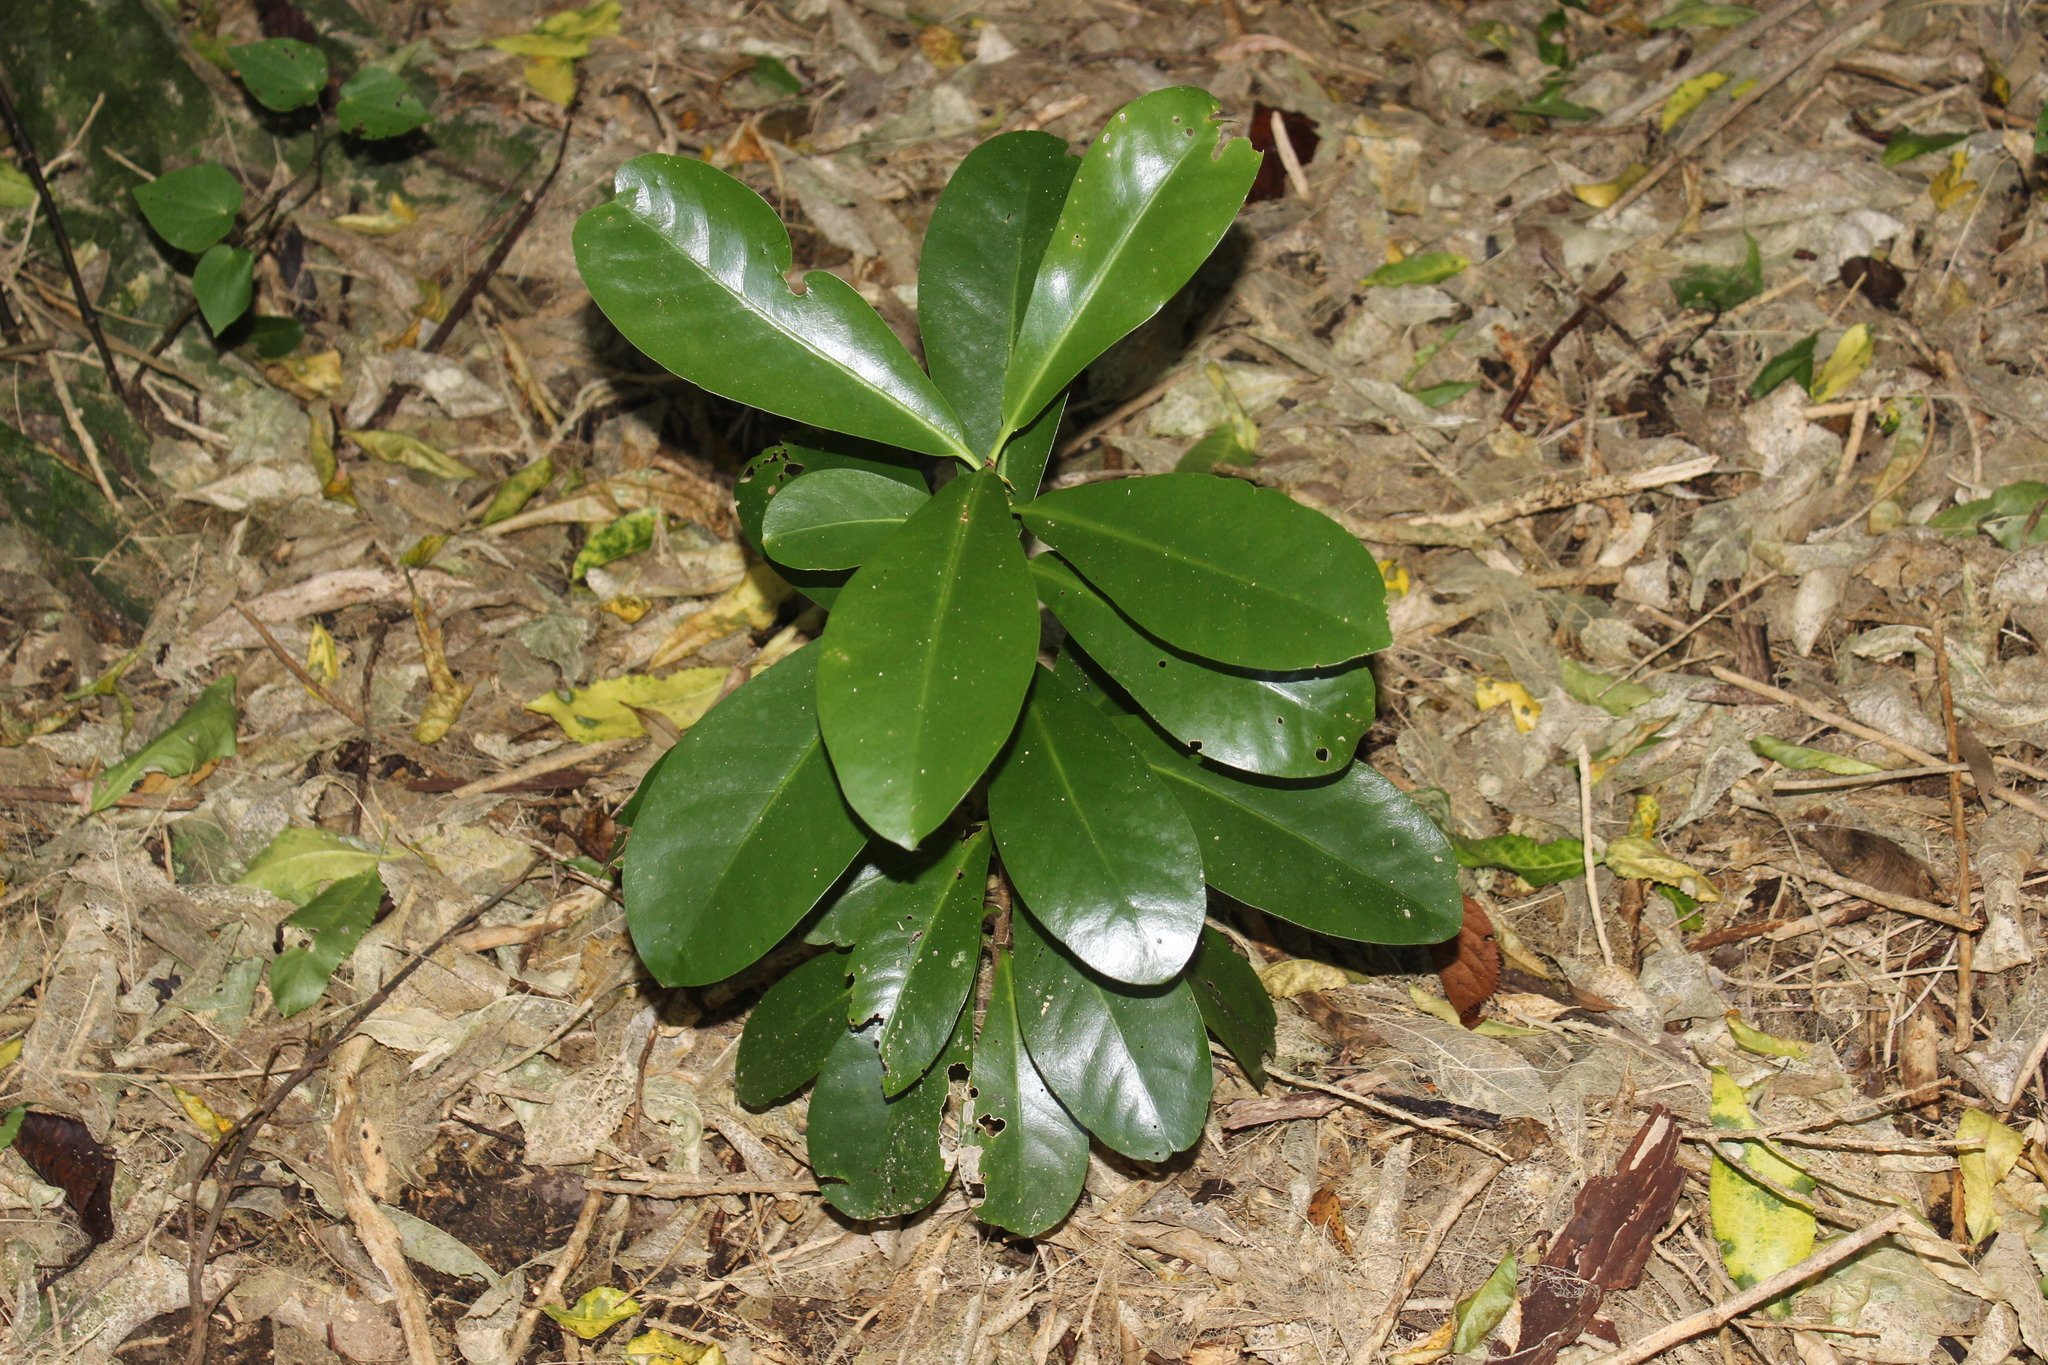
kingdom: Plantae
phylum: Tracheophyta
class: Magnoliopsida
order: Cucurbitales
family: Corynocarpaceae
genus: Corynocarpus
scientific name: Corynocarpus laevigatus
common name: New zealand laurel
